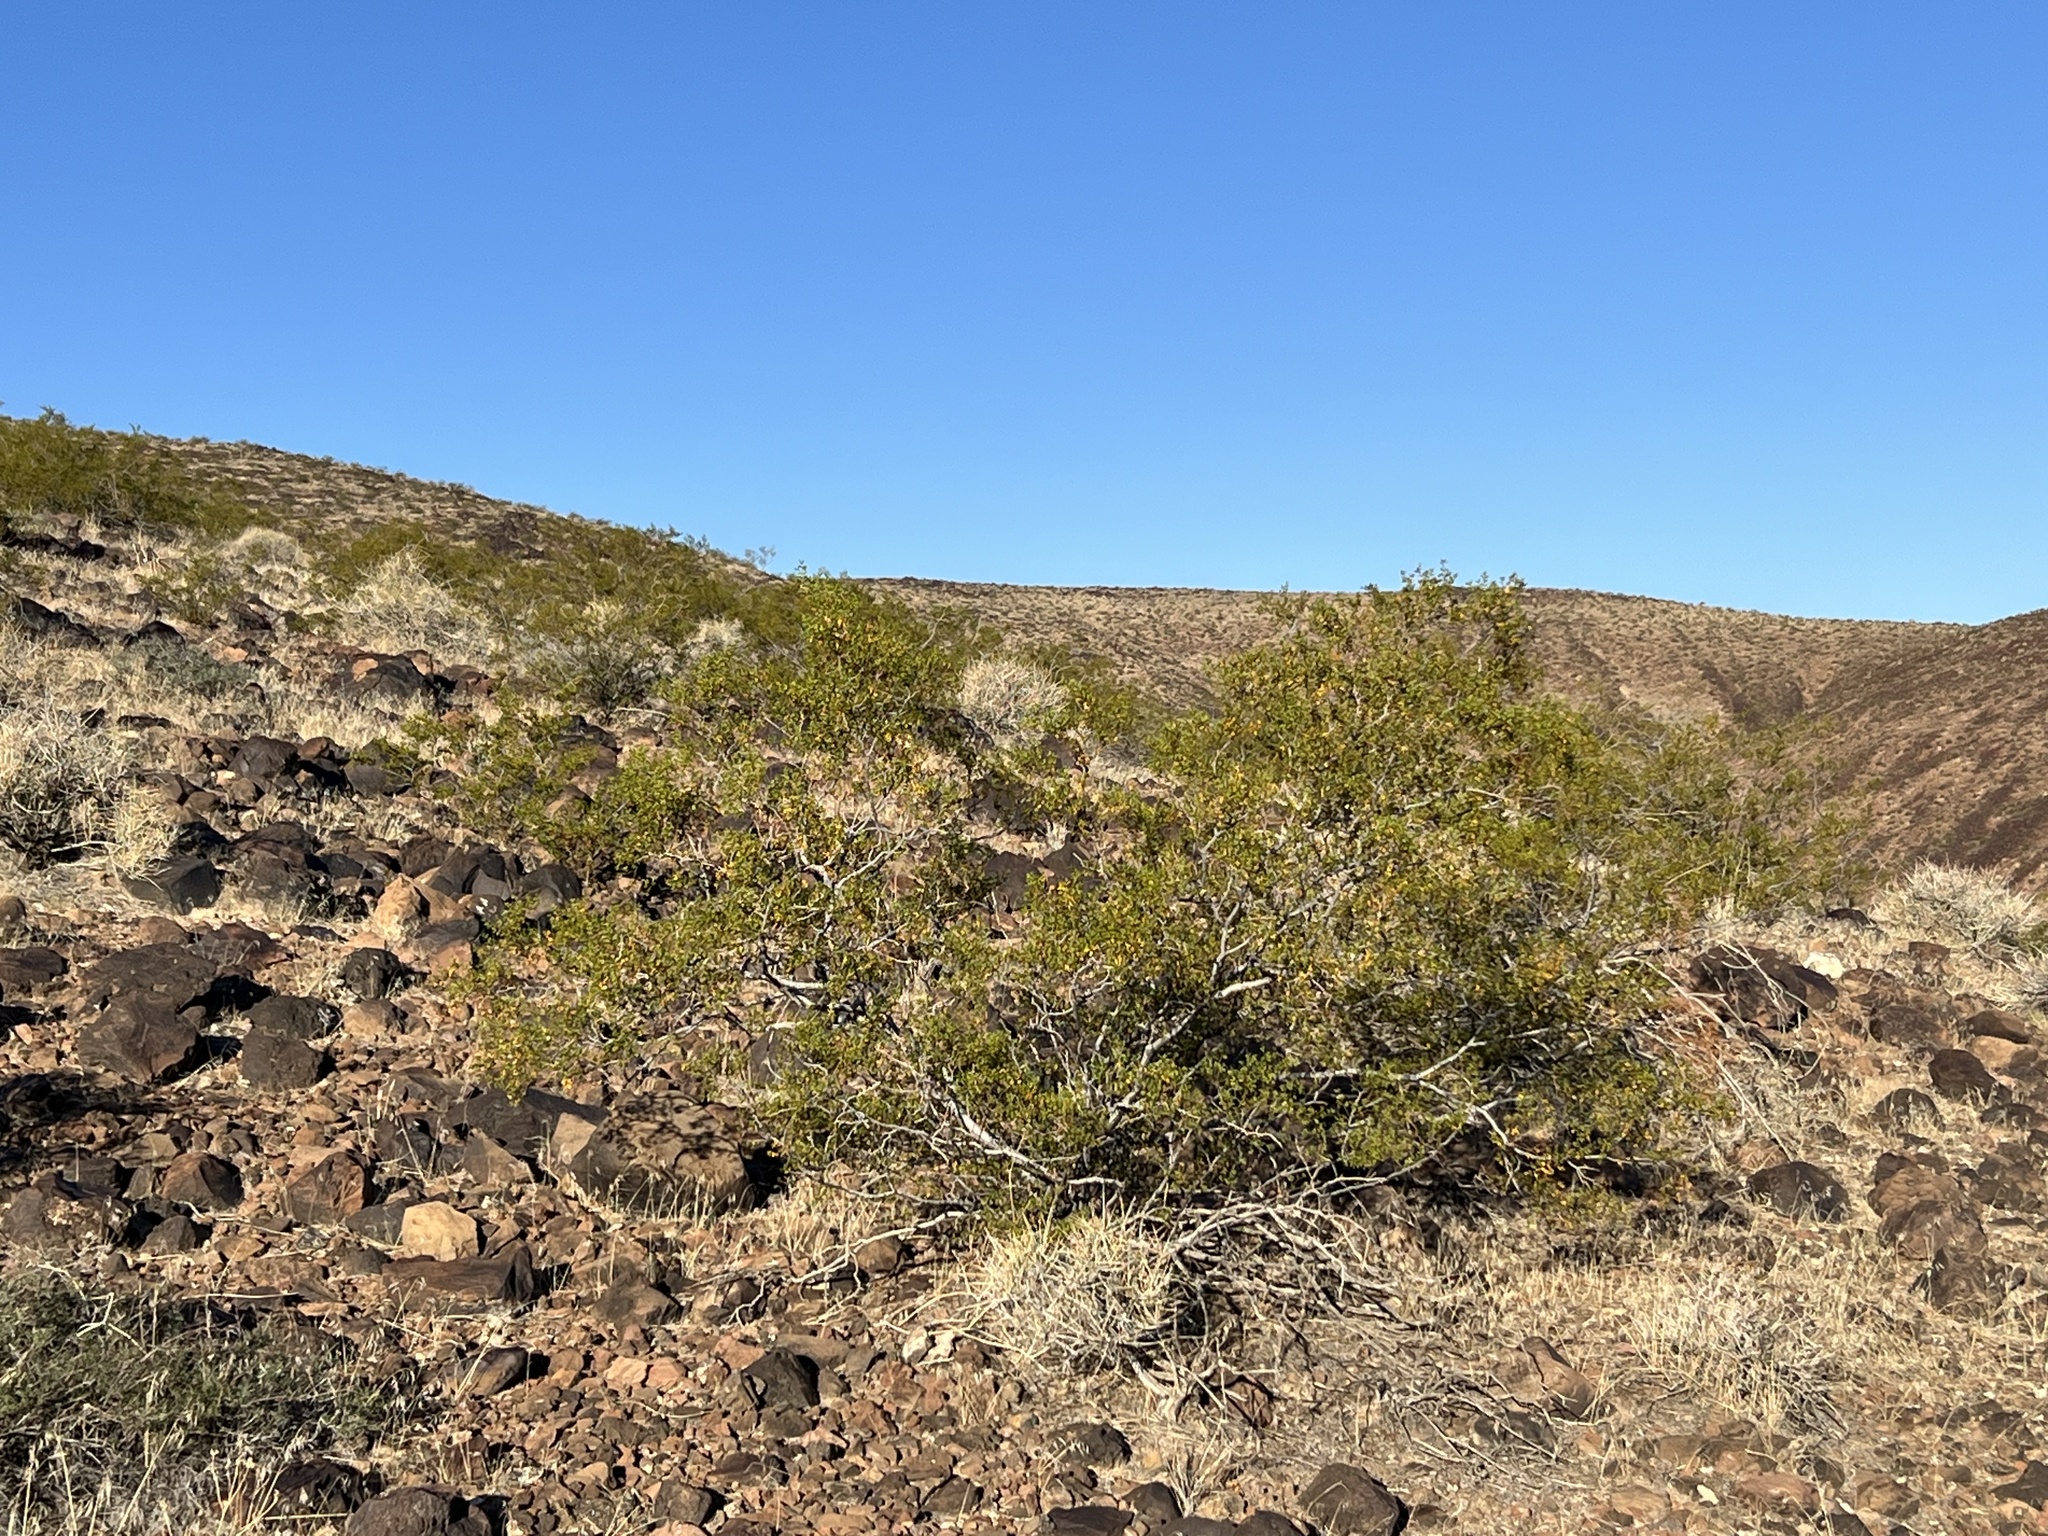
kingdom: Plantae
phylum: Tracheophyta
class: Magnoliopsida
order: Zygophyllales
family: Zygophyllaceae
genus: Larrea
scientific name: Larrea tridentata
